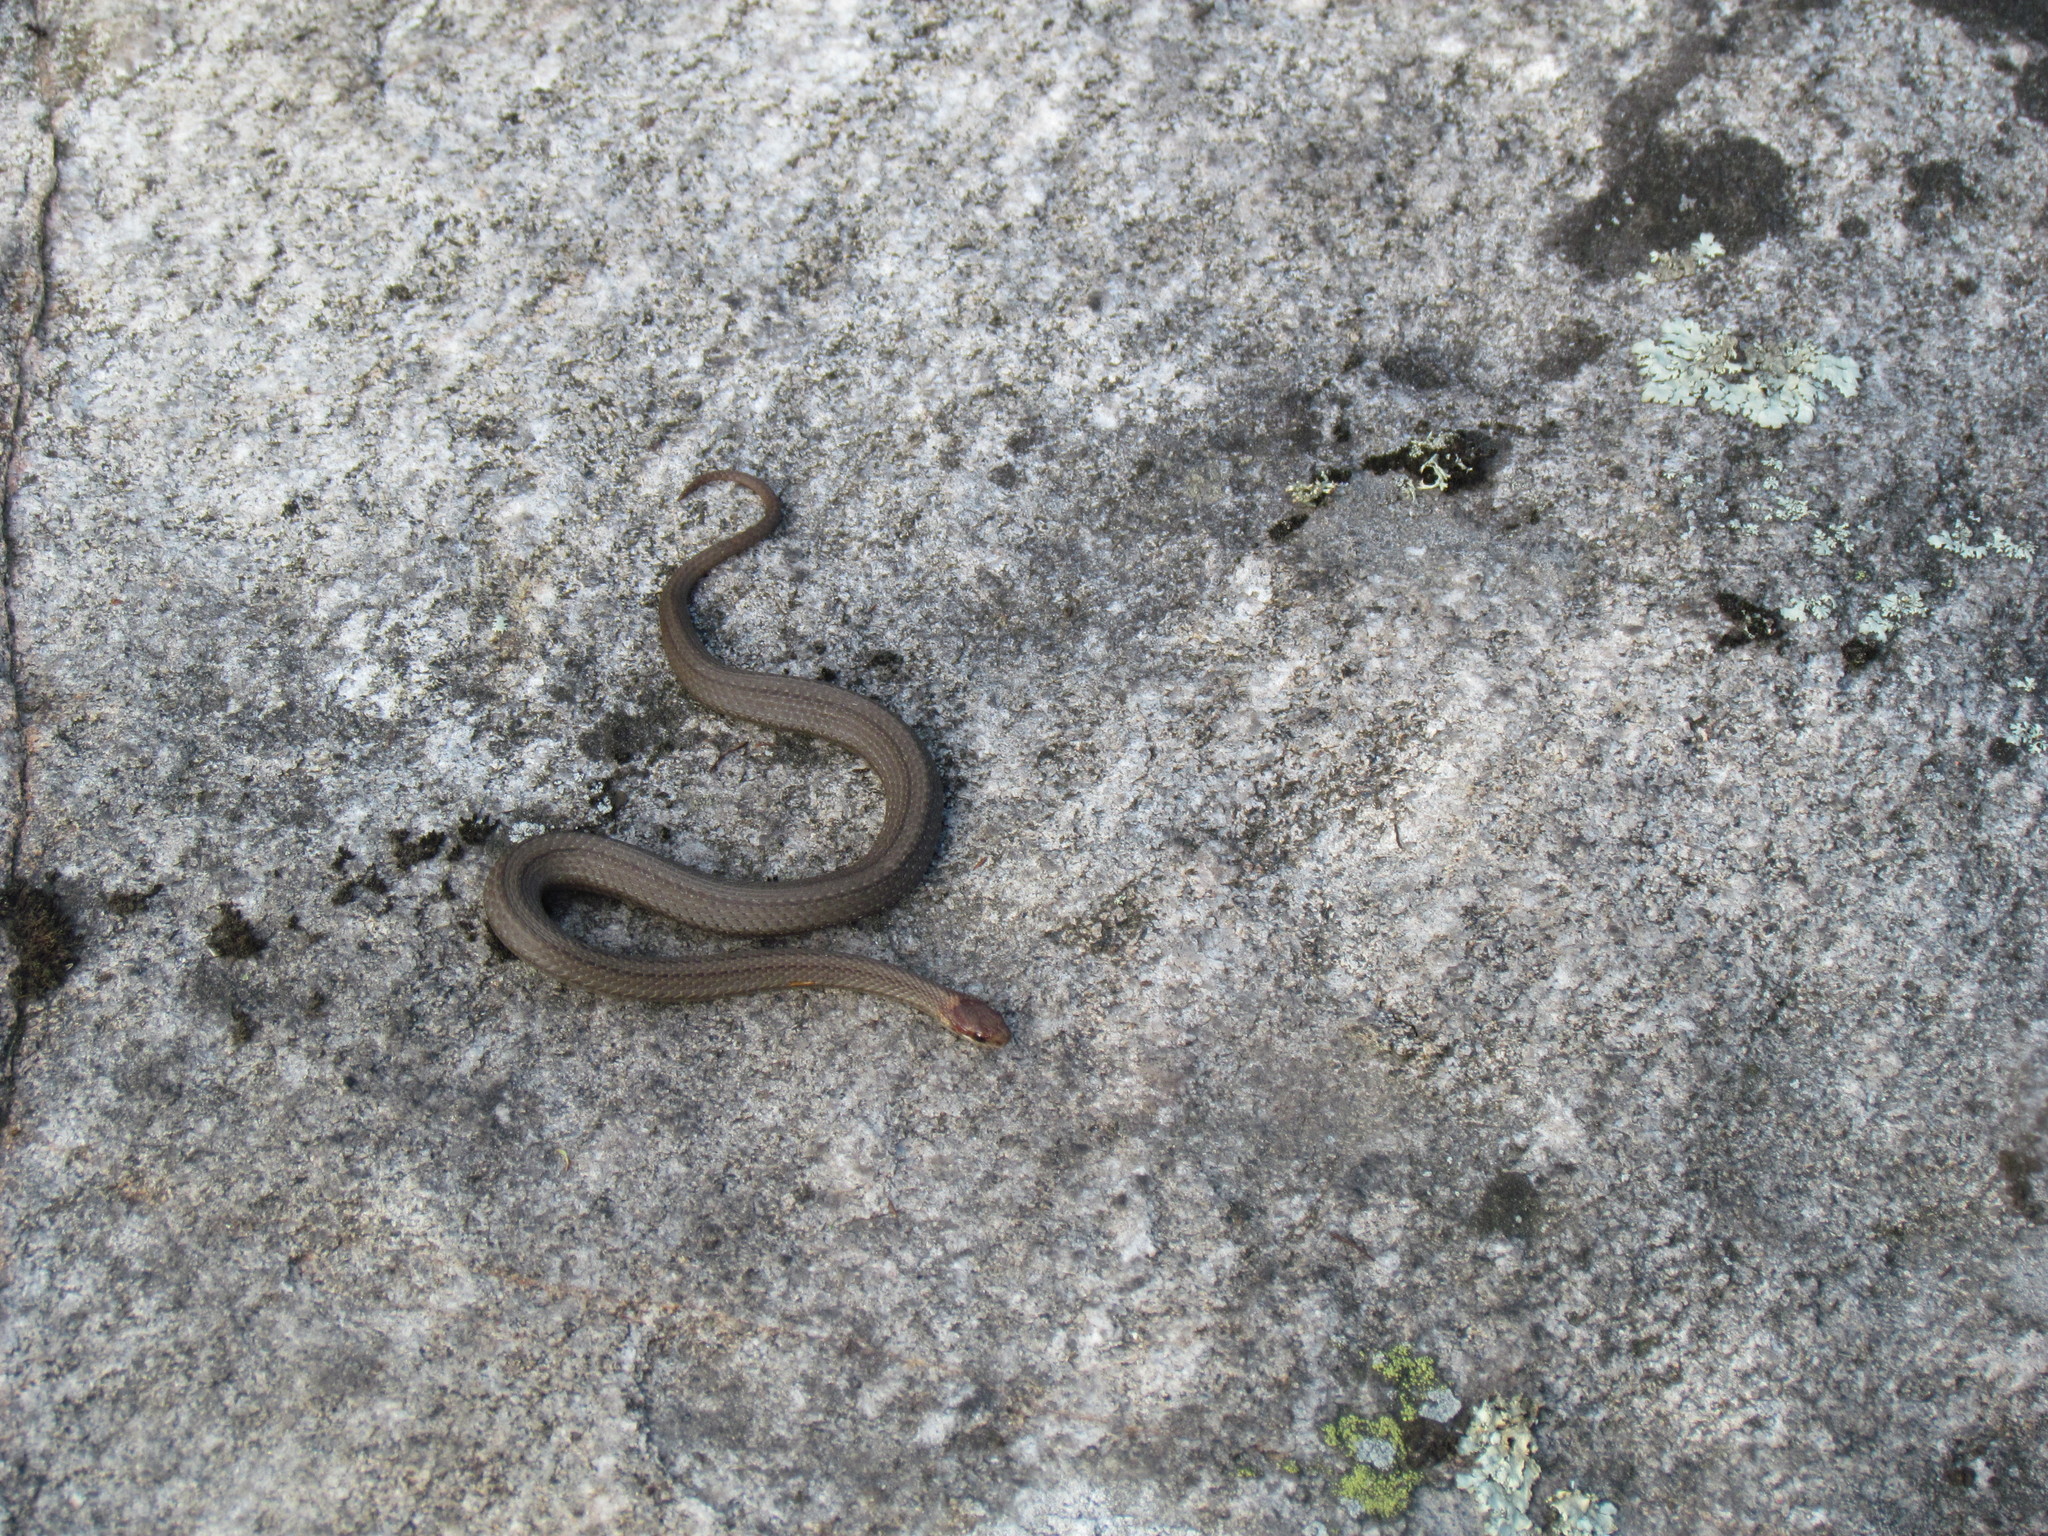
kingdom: Animalia
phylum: Chordata
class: Squamata
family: Colubridae
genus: Storeria
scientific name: Storeria occipitomaculata
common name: Redbelly snake
